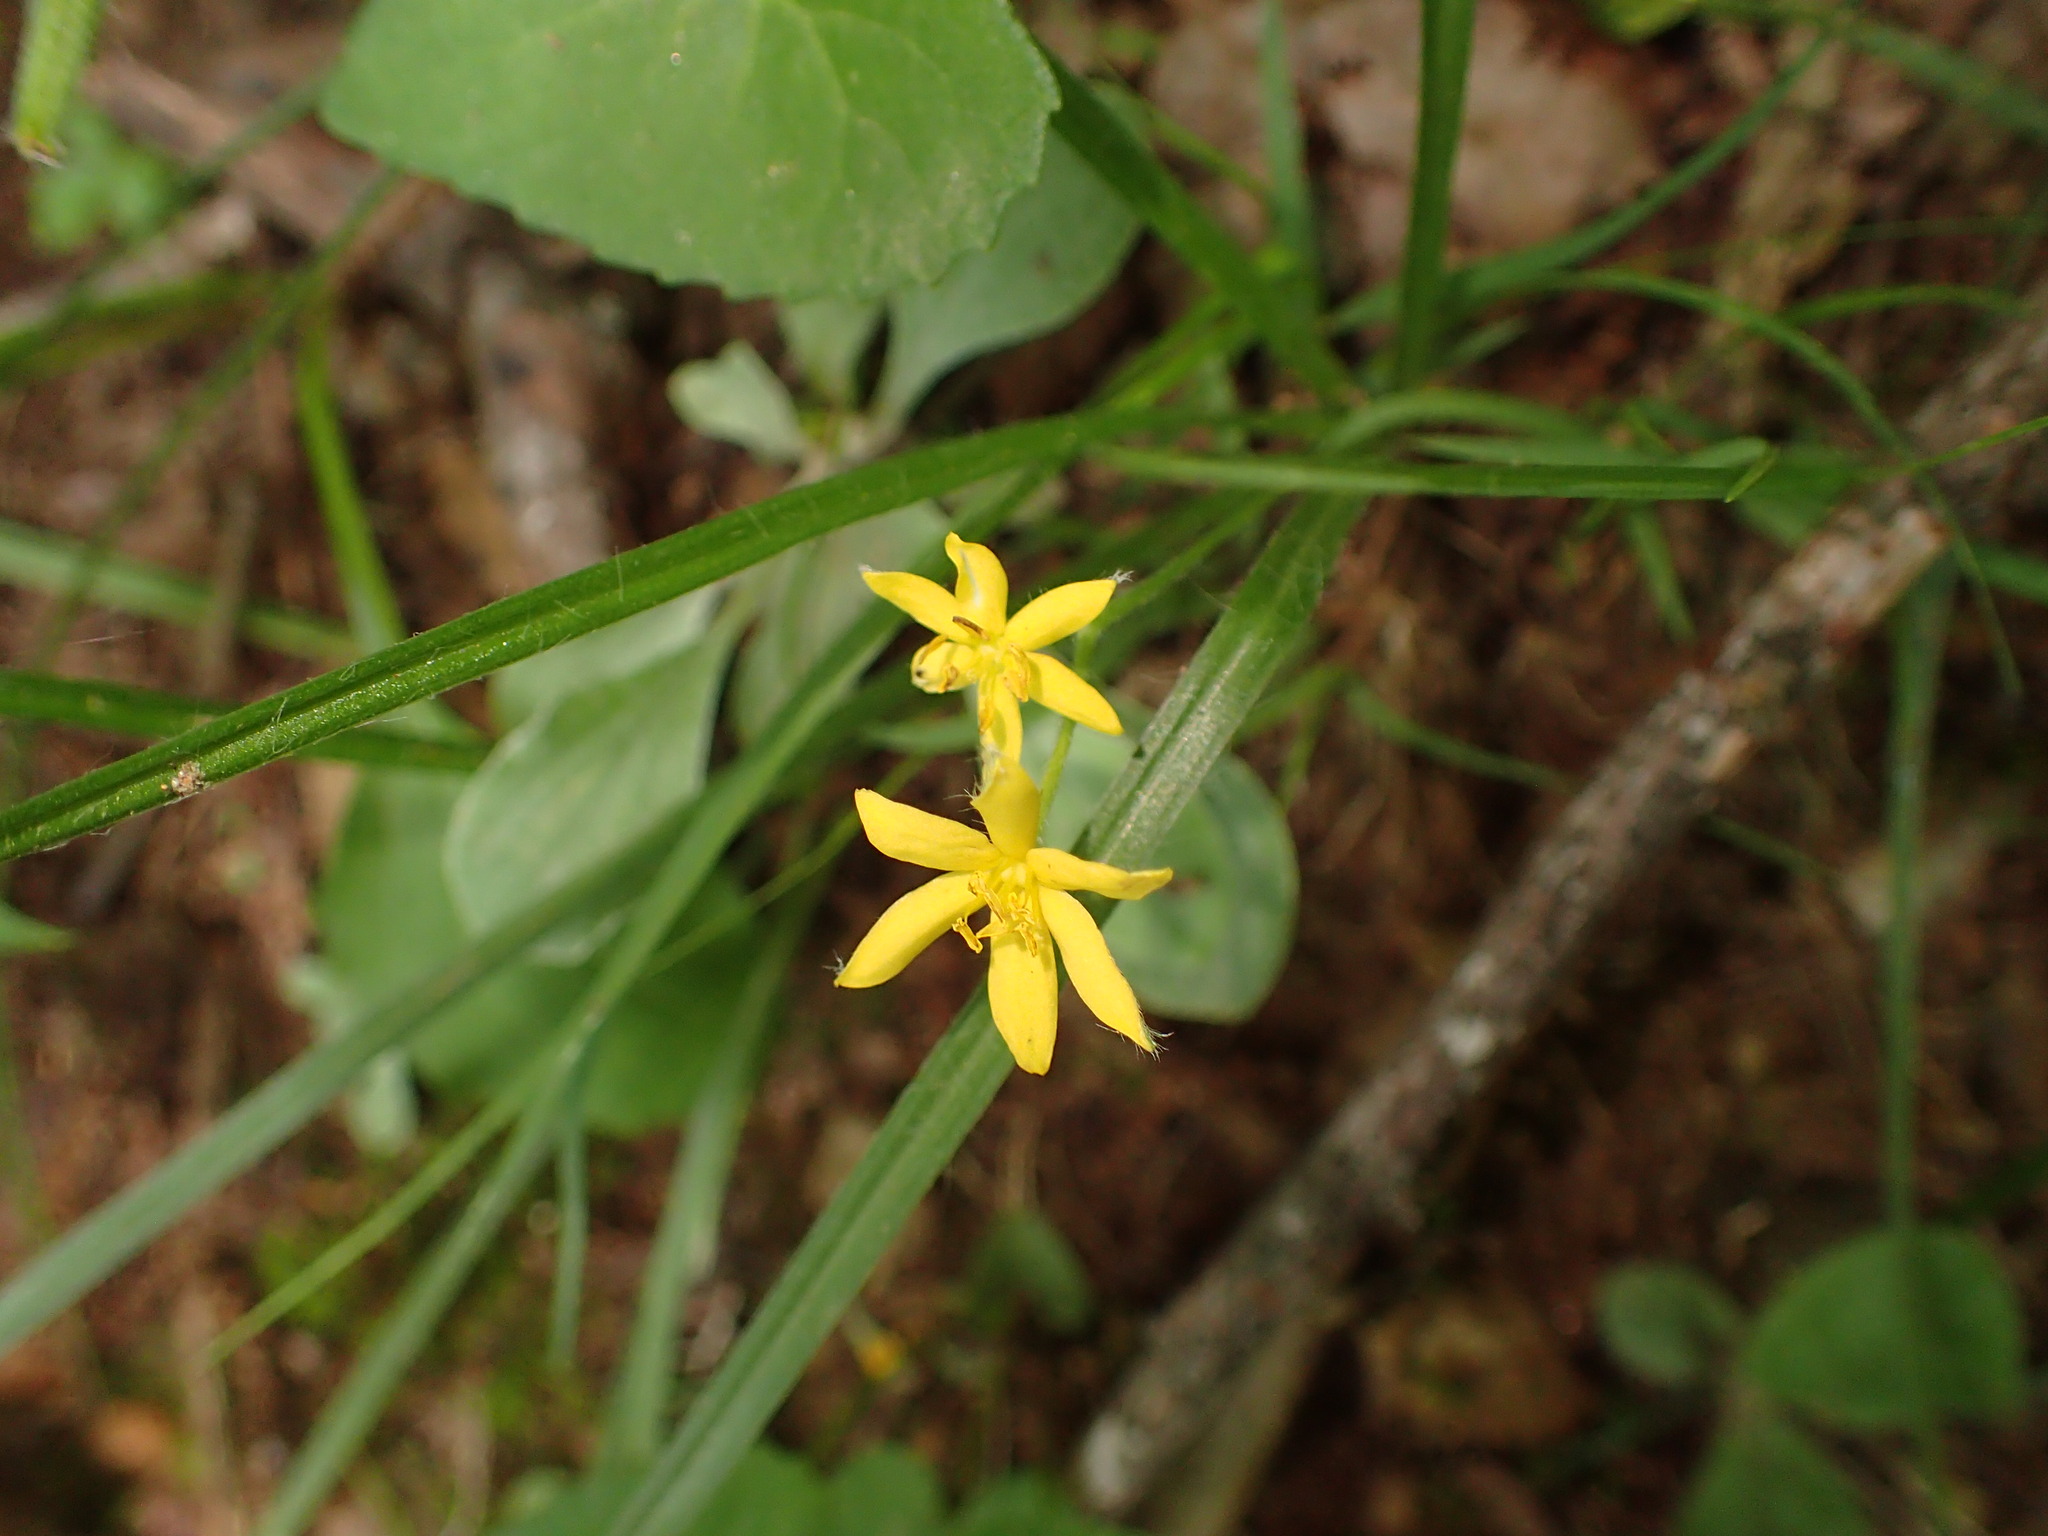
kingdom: Plantae
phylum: Tracheophyta
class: Liliopsida
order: Asparagales
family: Hypoxidaceae
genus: Hypoxis
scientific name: Hypoxis hirsuta
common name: Common goldstar
